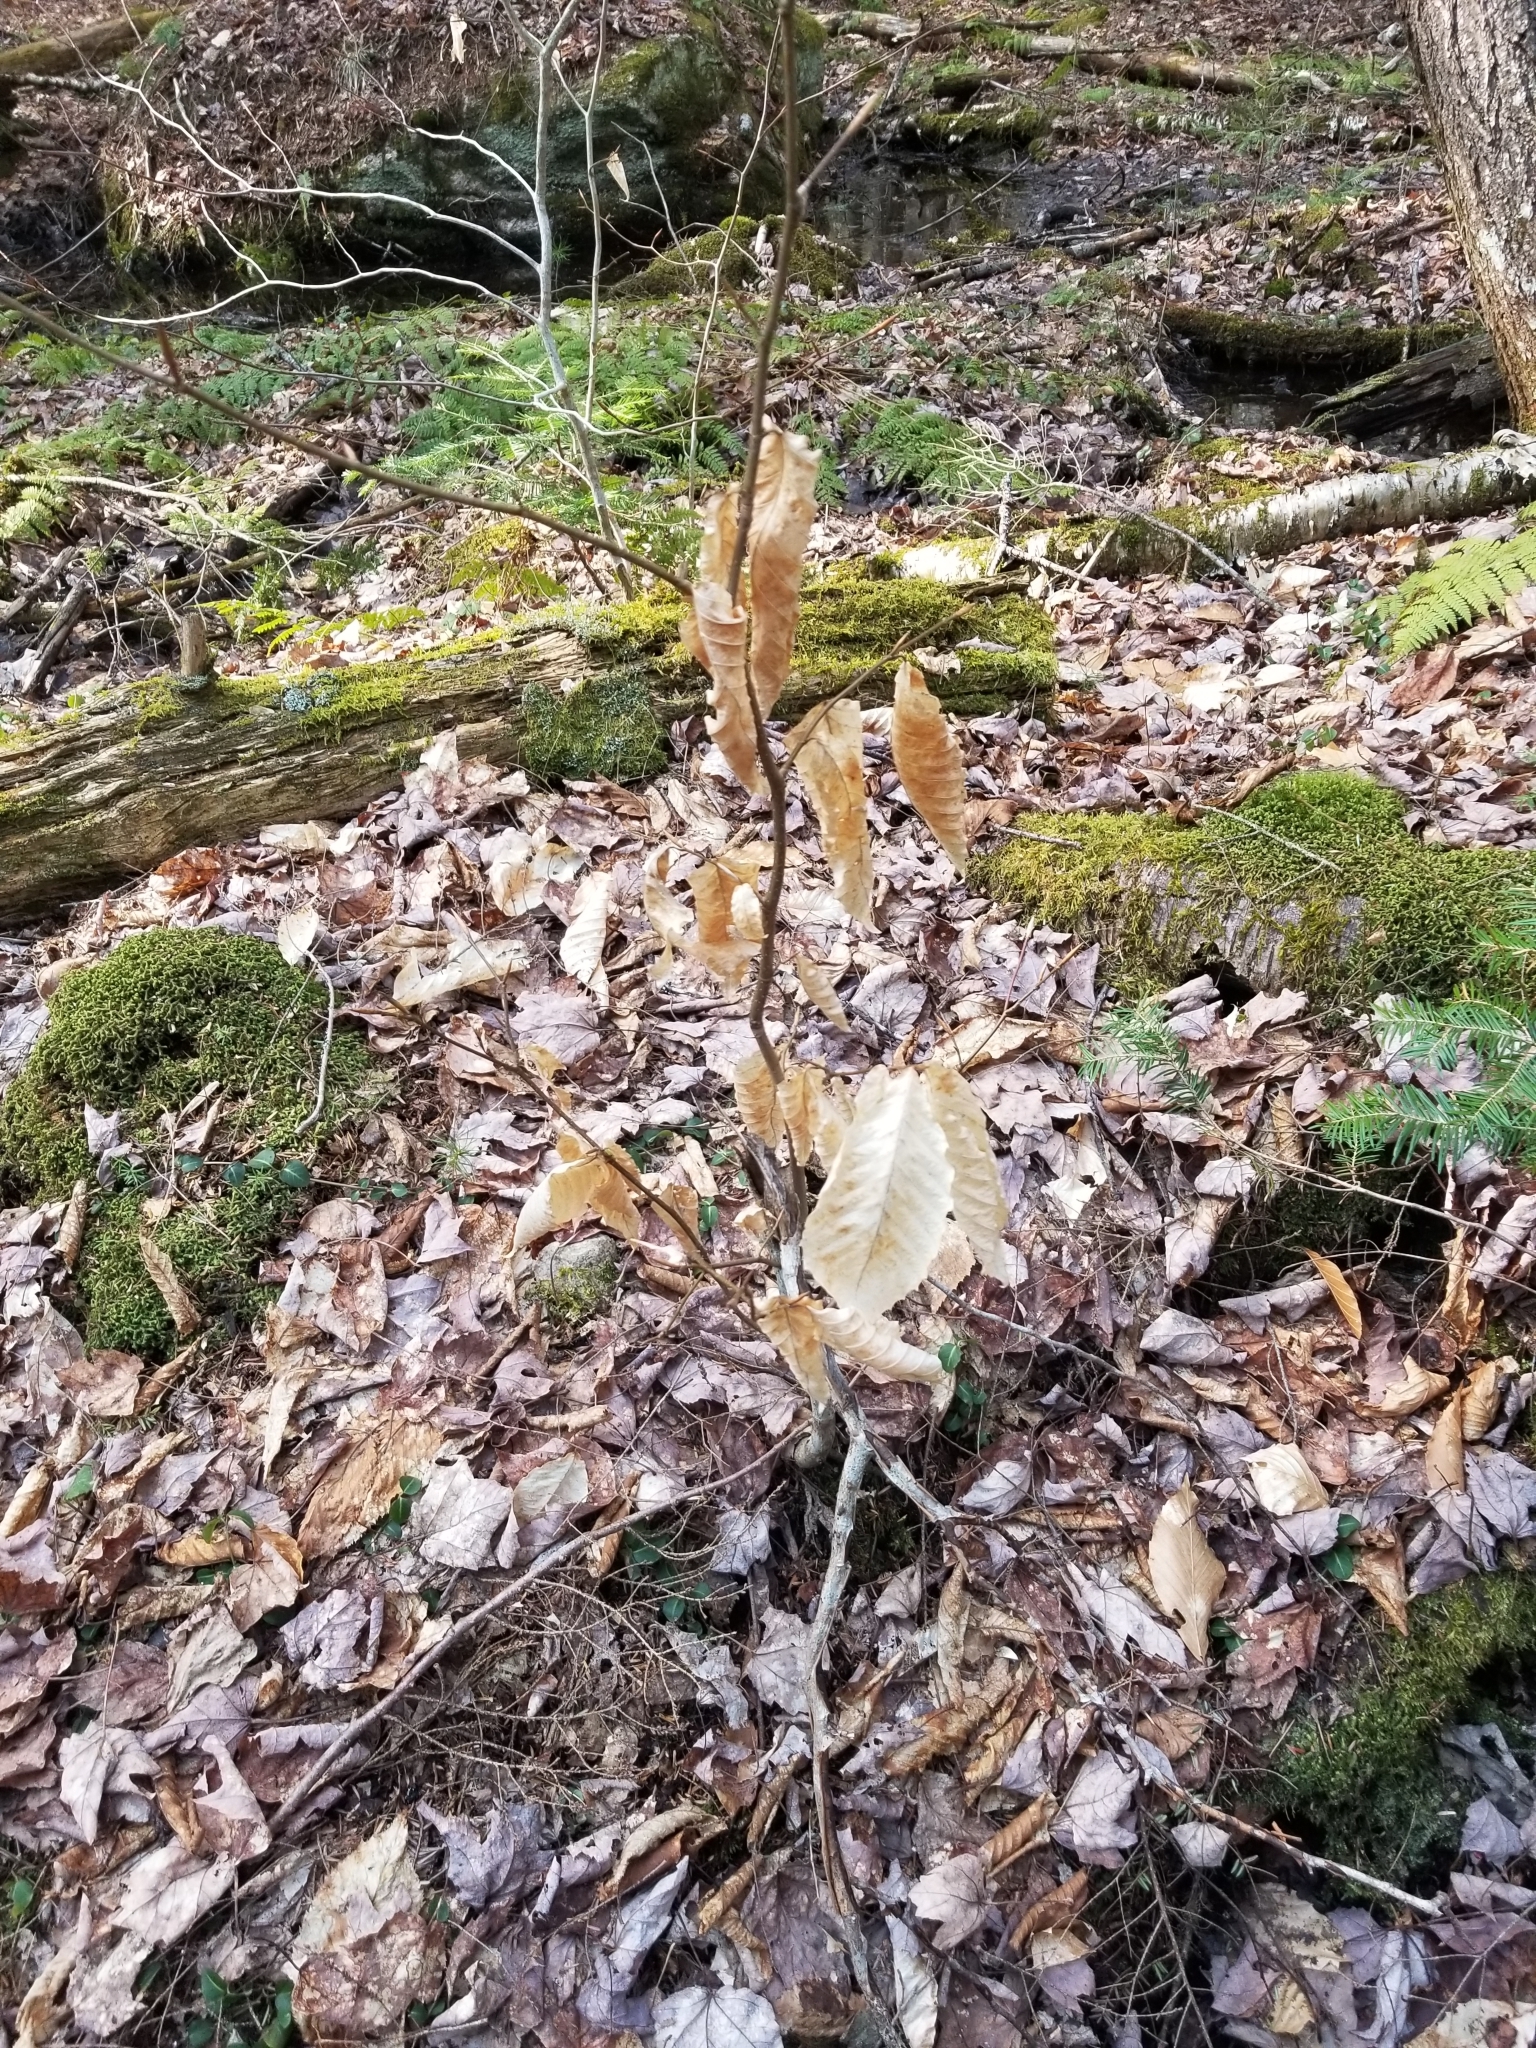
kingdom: Plantae
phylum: Tracheophyta
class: Magnoliopsida
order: Fagales
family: Fagaceae
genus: Fagus
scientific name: Fagus grandifolia
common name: American beech
